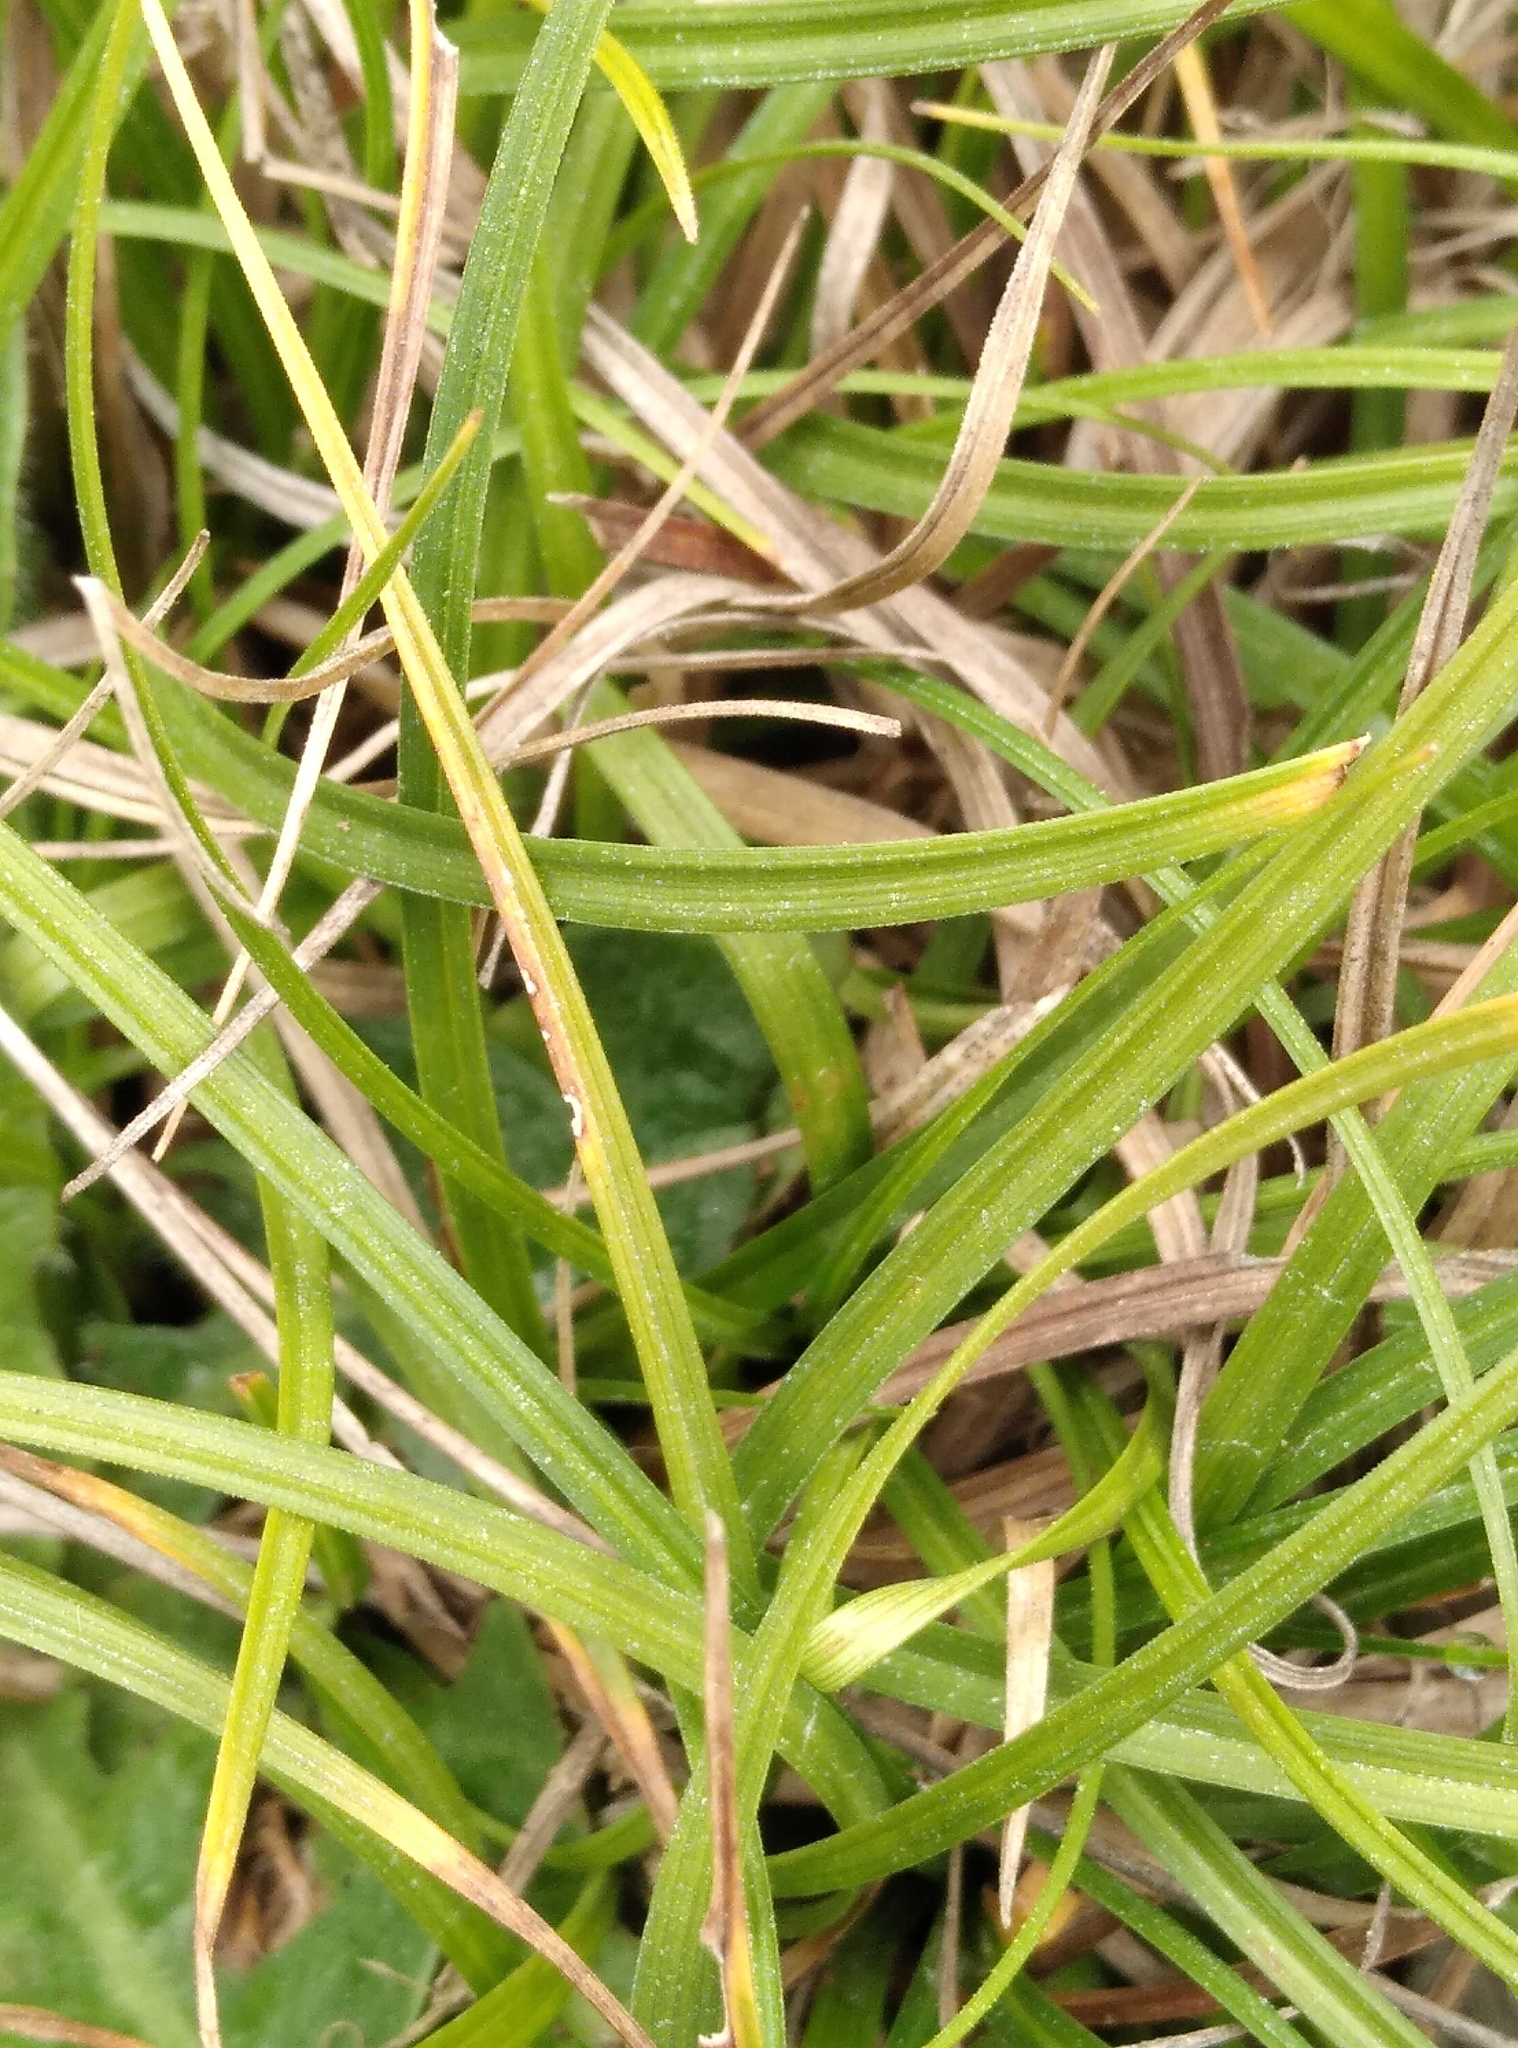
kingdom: Plantae
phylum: Tracheophyta
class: Liliopsida
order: Poales
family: Cyperaceae
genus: Carex
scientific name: Carex breviculmis
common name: Asian shortstem sedge
